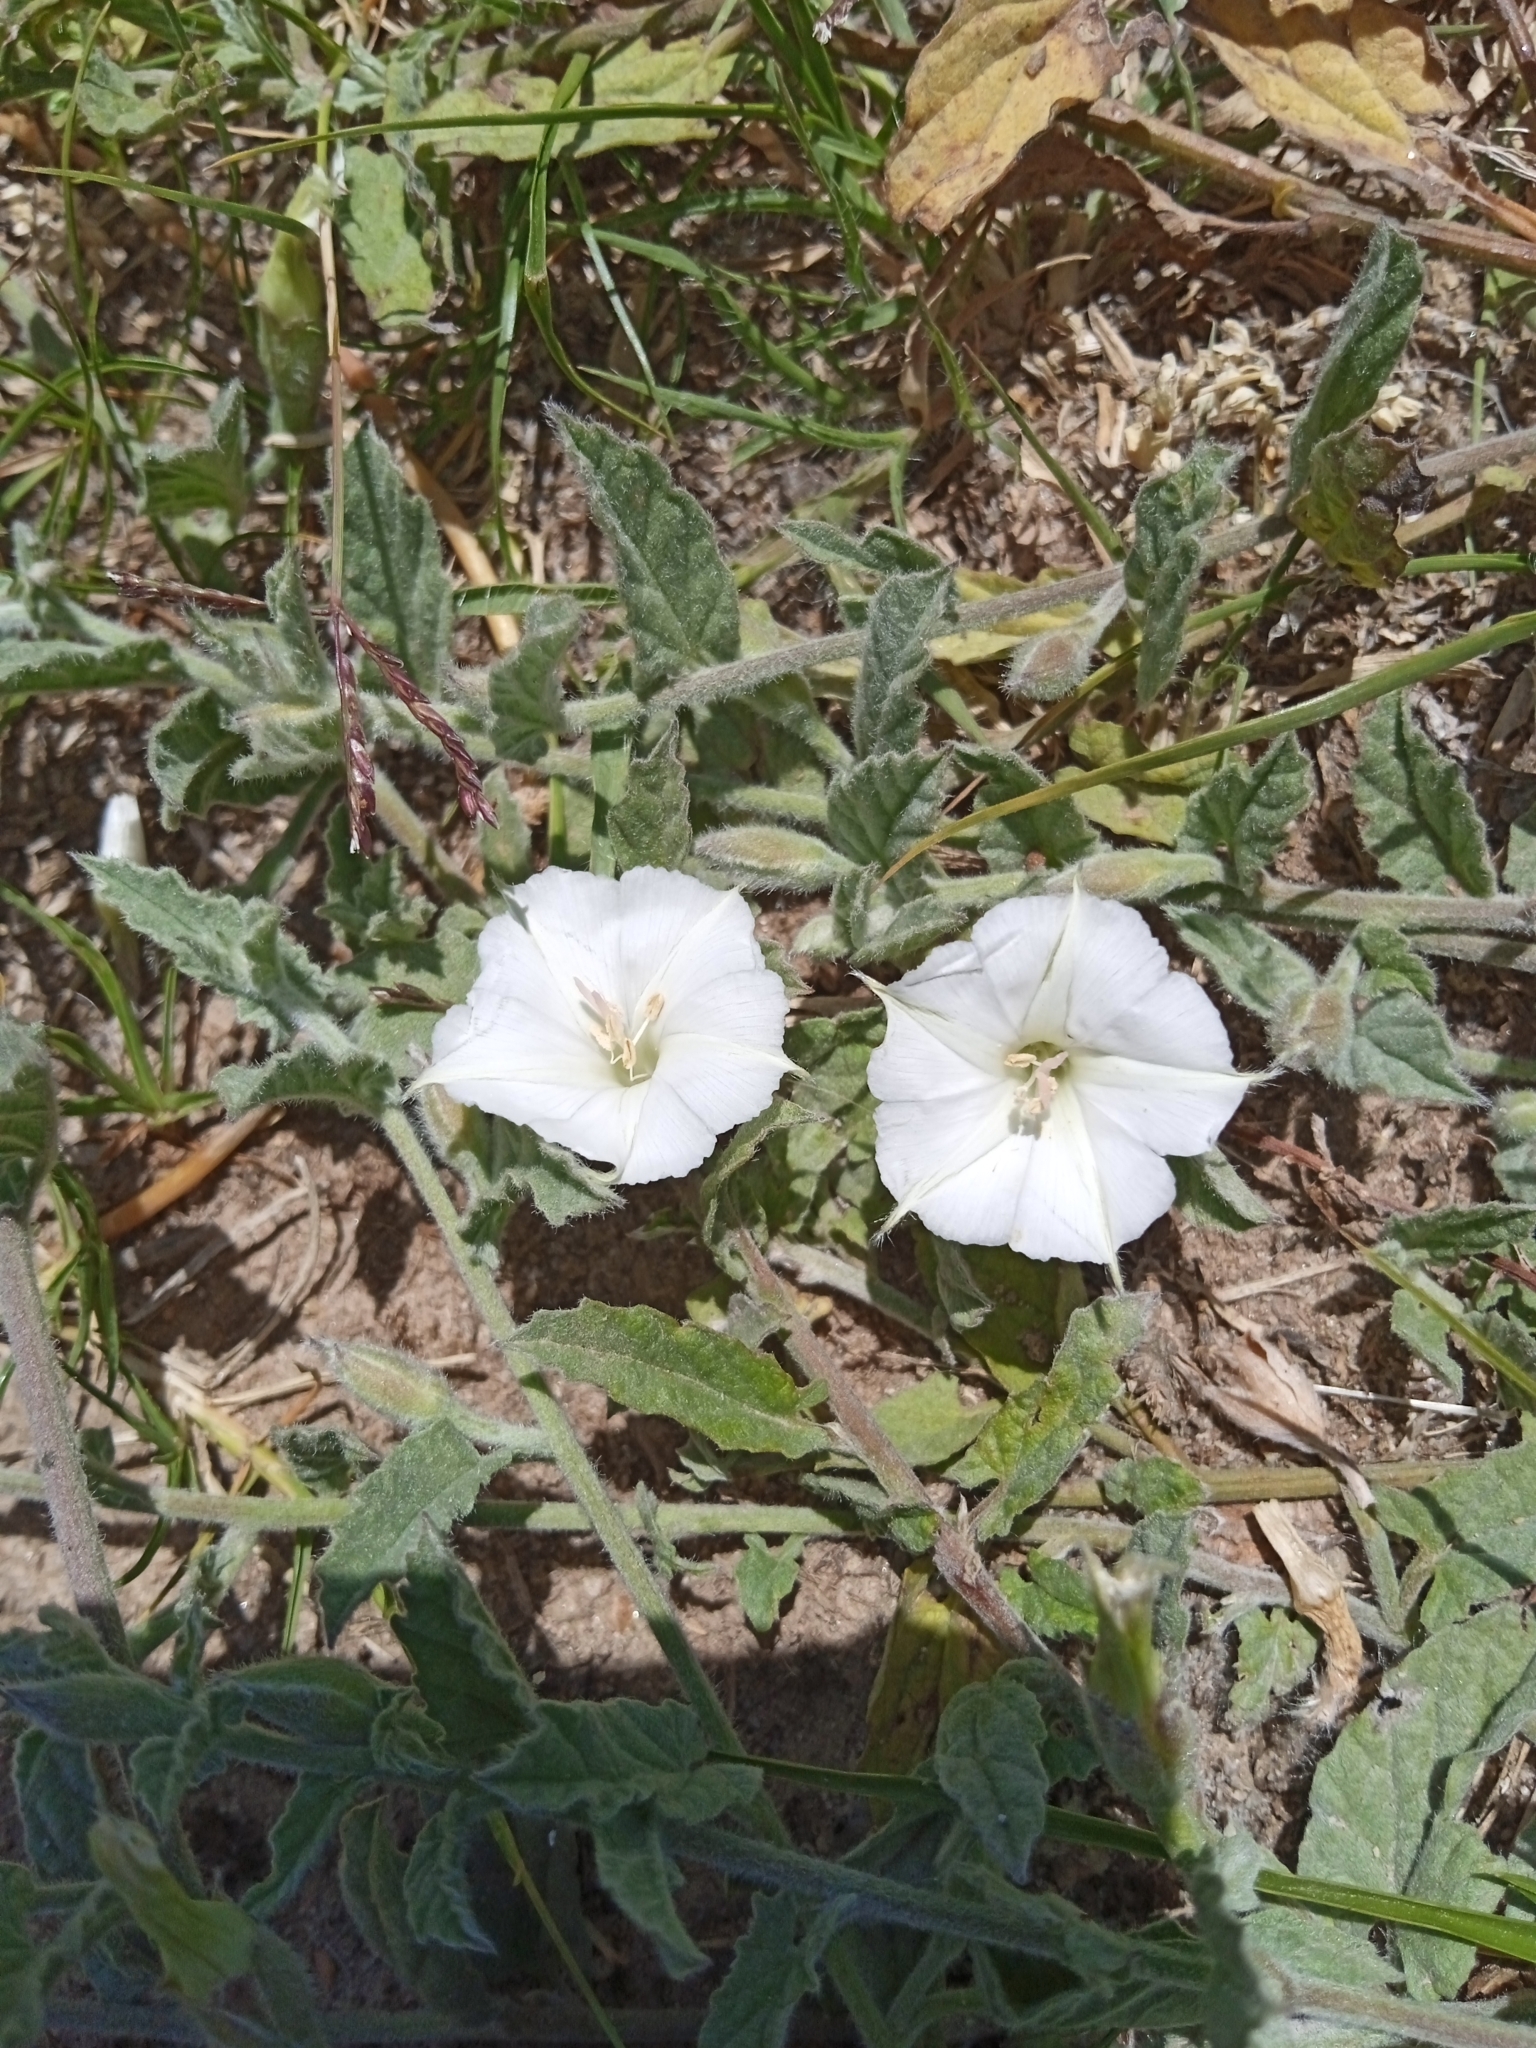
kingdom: Plantae
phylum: Tracheophyta
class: Magnoliopsida
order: Solanales
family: Convolvulaceae
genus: Convolvulus
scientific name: Convolvulus hermanniae
